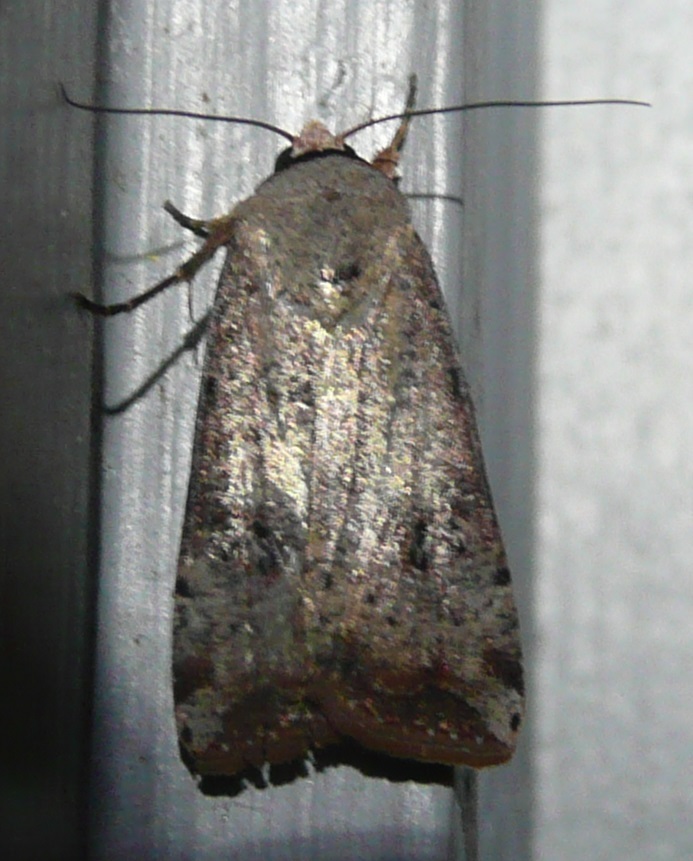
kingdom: Animalia
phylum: Arthropoda
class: Insecta
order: Lepidoptera
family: Noctuidae
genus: Anicla
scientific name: Anicla infecta
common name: Green cutworm
